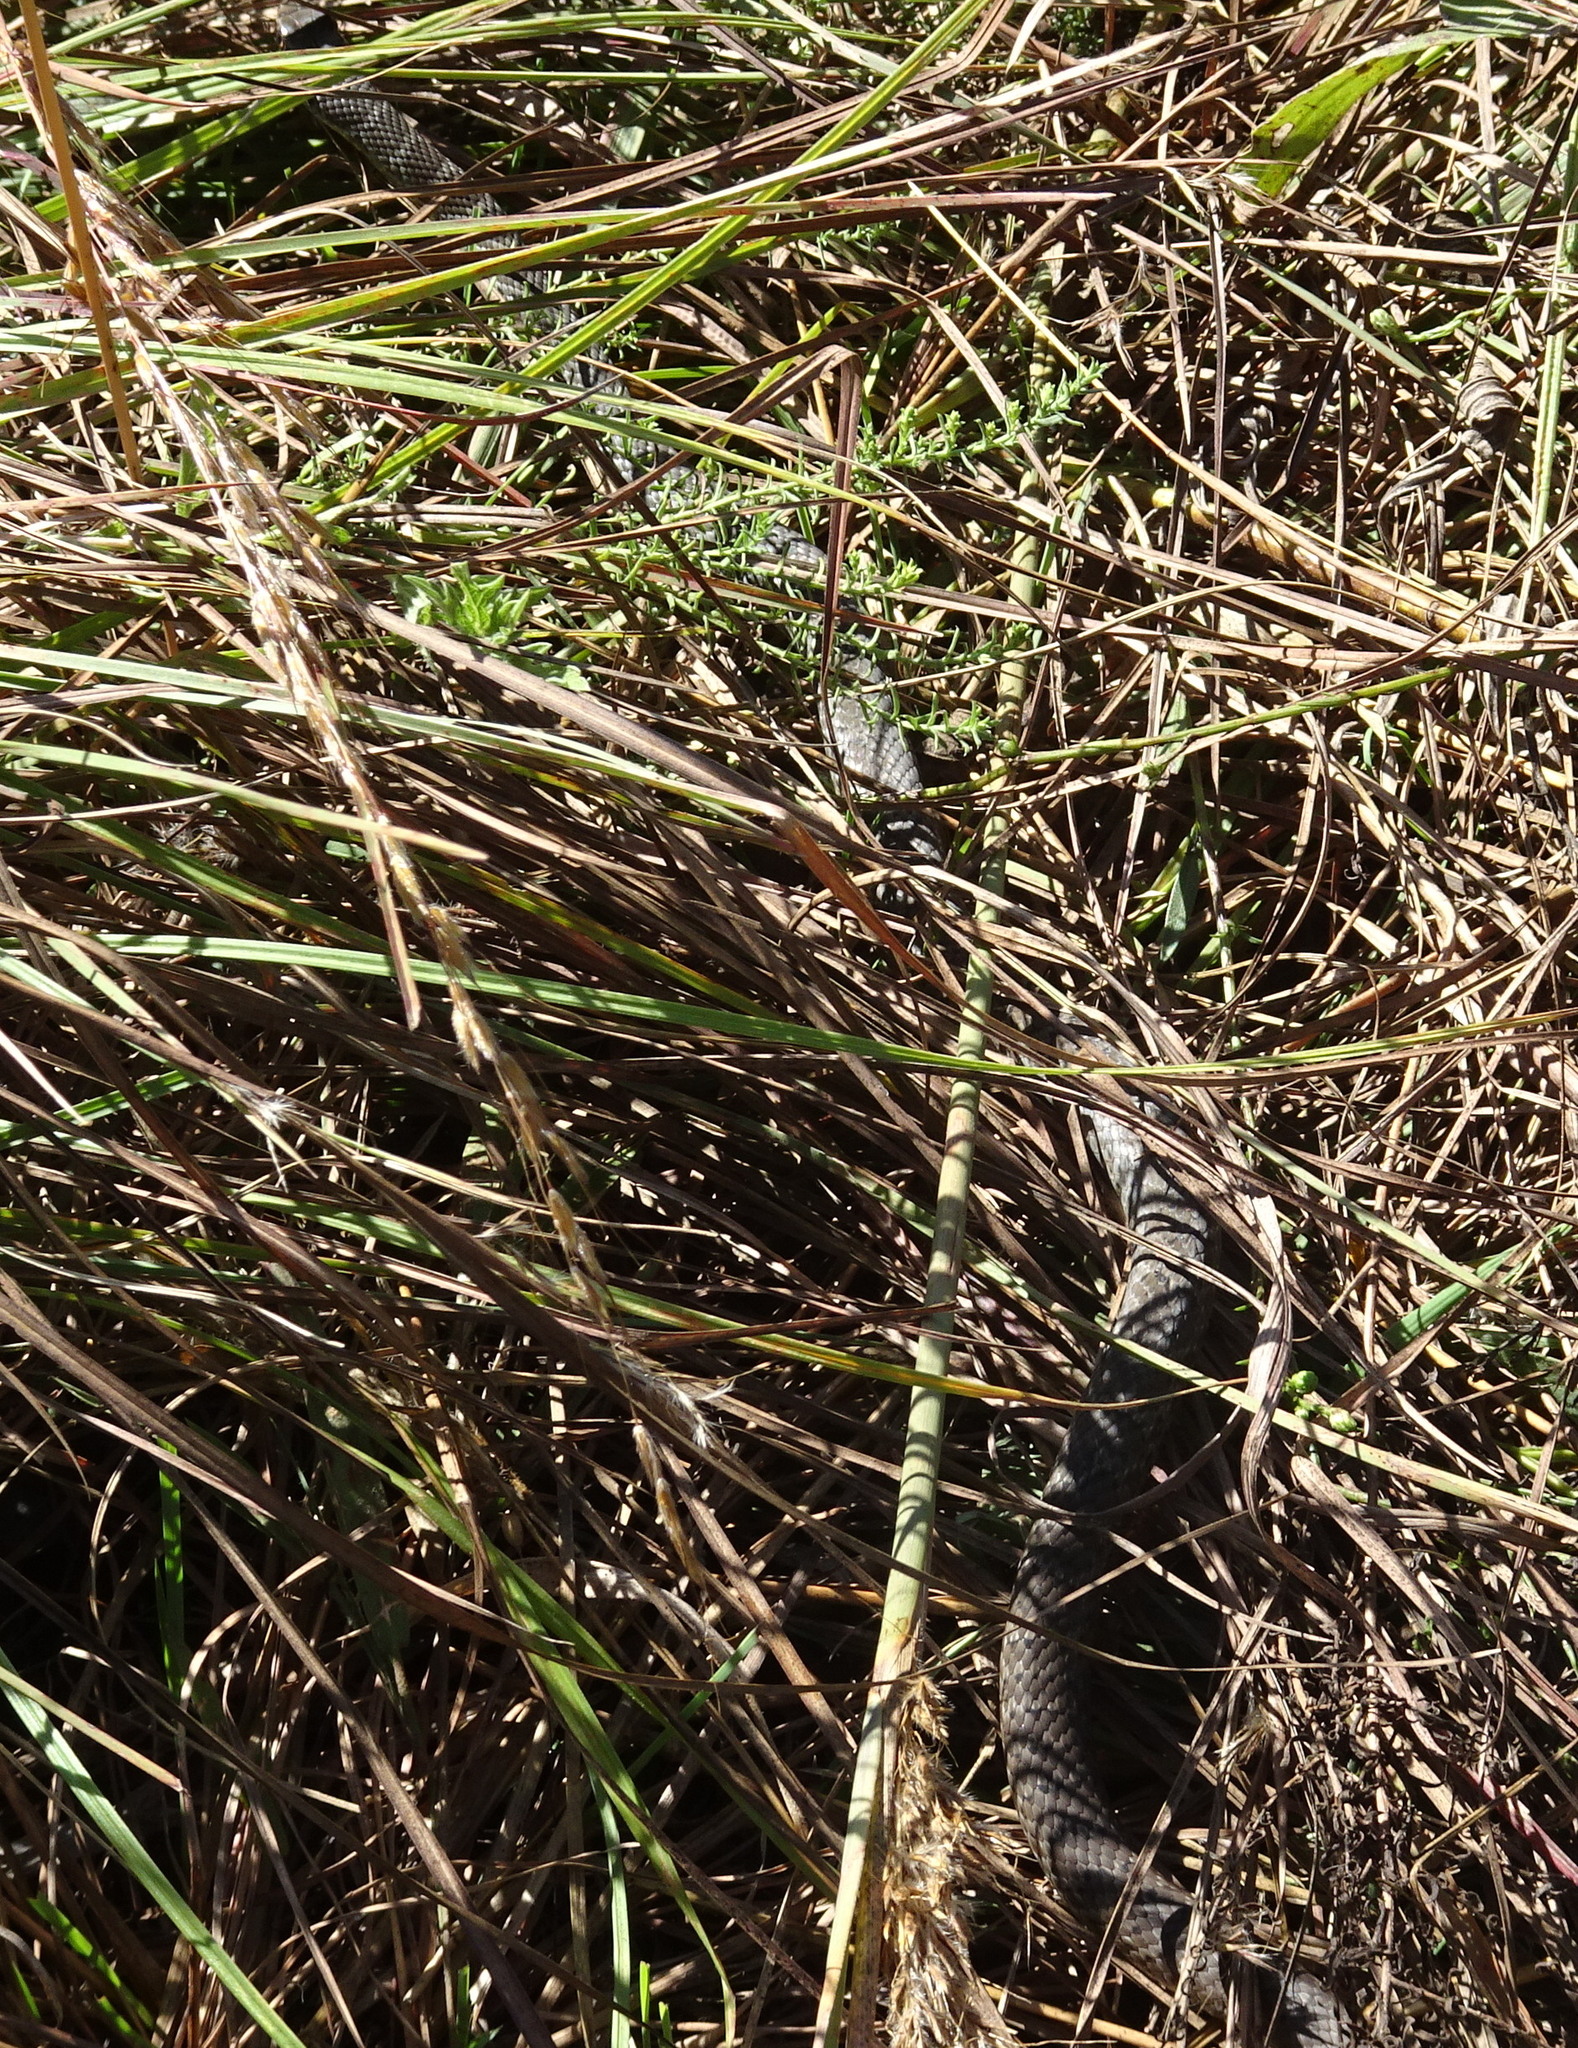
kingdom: Animalia
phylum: Chordata
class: Squamata
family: Colubridae
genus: Coluber
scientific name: Coluber constrictor
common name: Eastern racer
